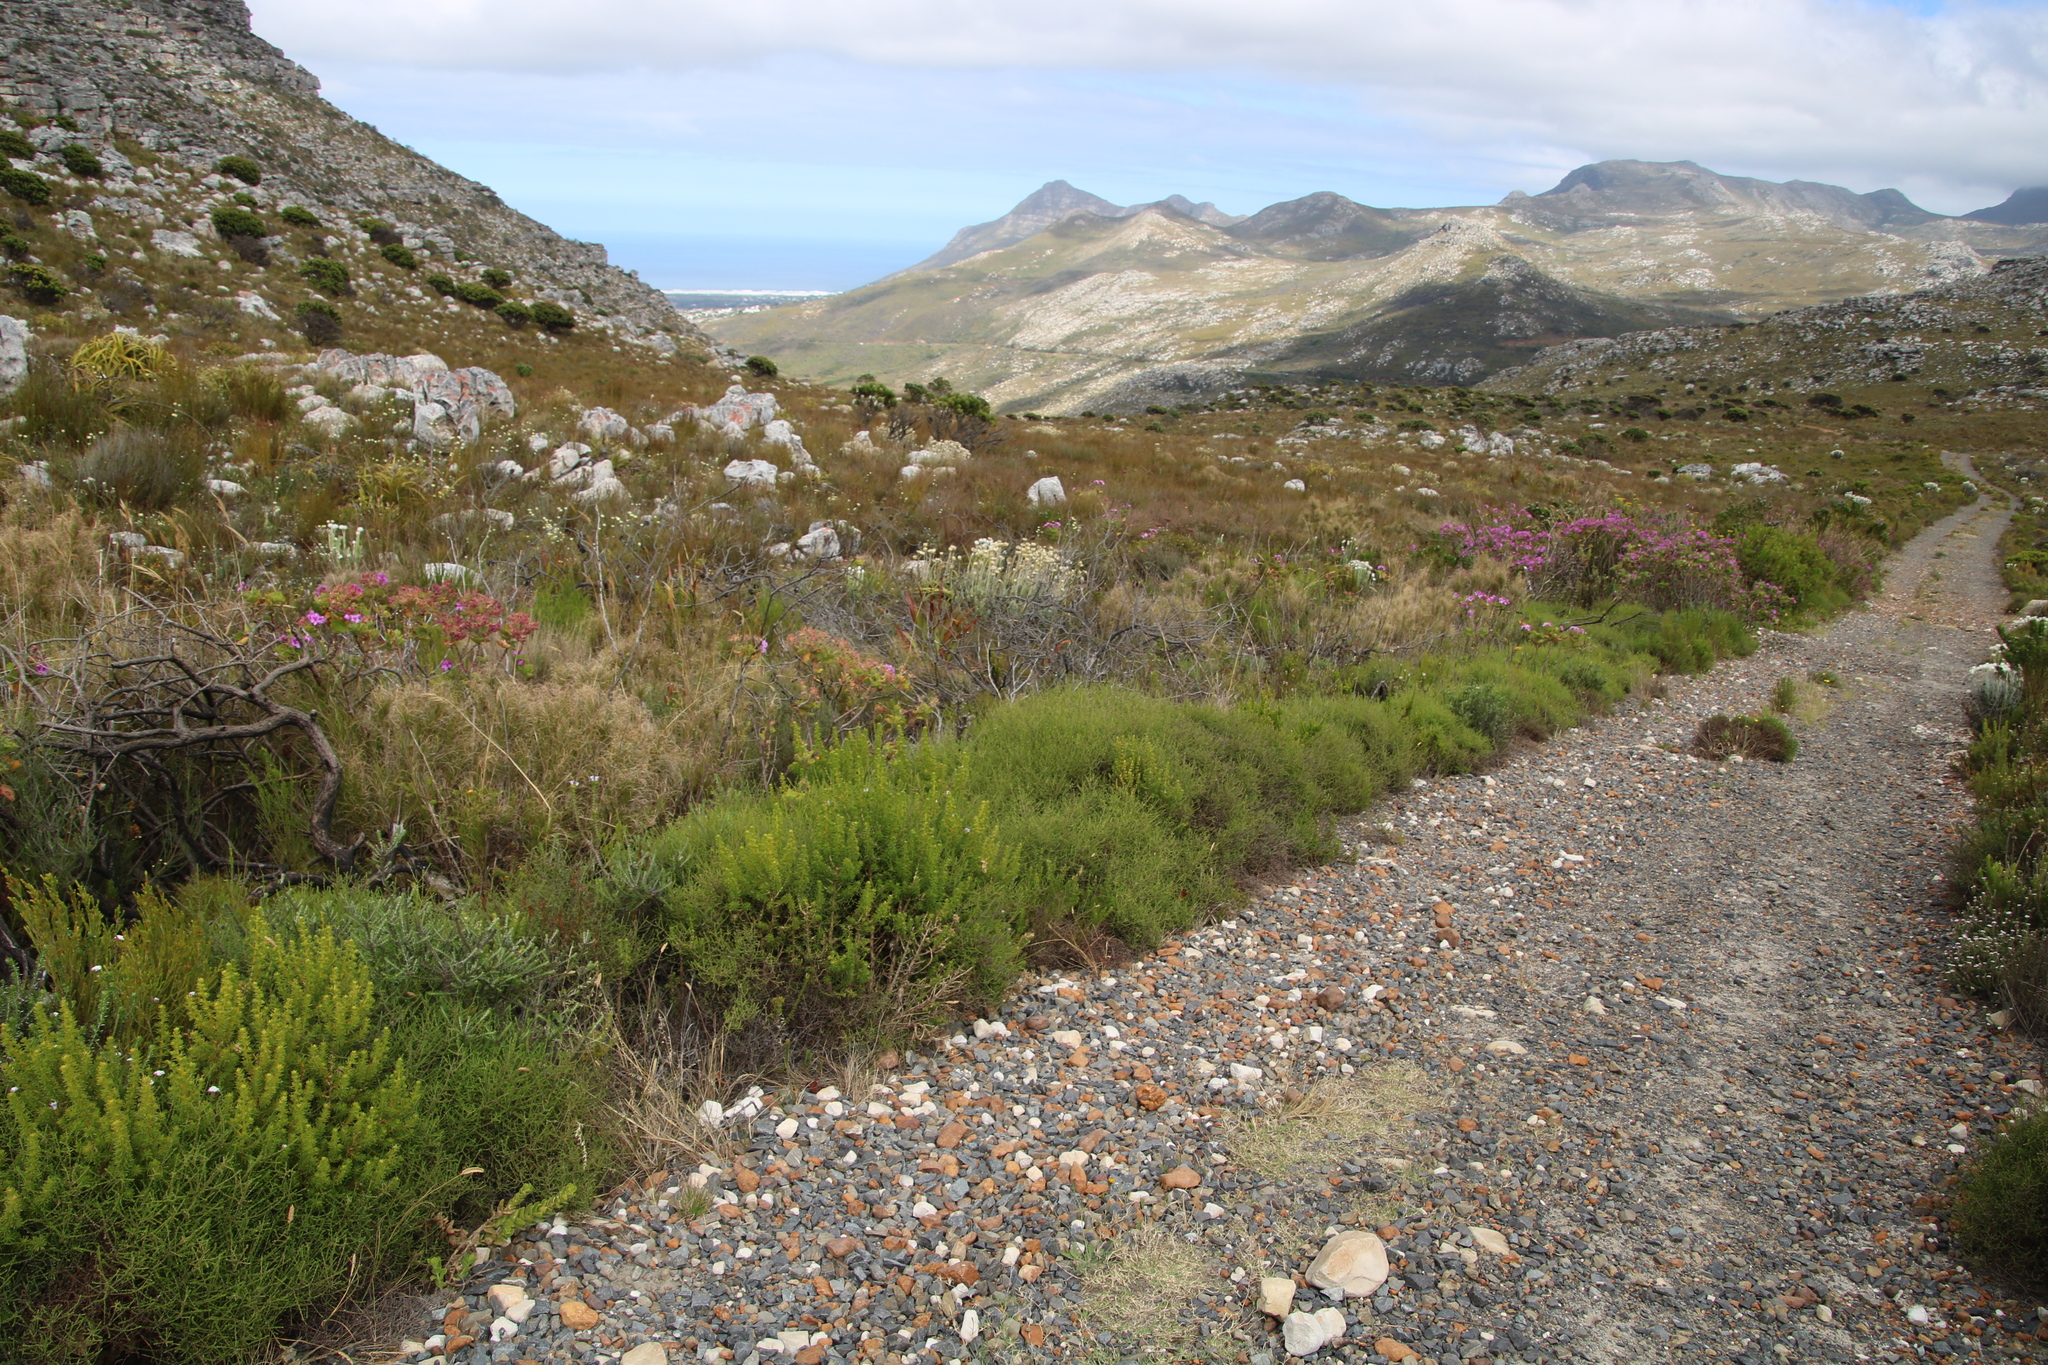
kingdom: Plantae
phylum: Tracheophyta
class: Magnoliopsida
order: Asterales
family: Asteraceae
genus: Myrovernix
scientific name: Myrovernix scaber
